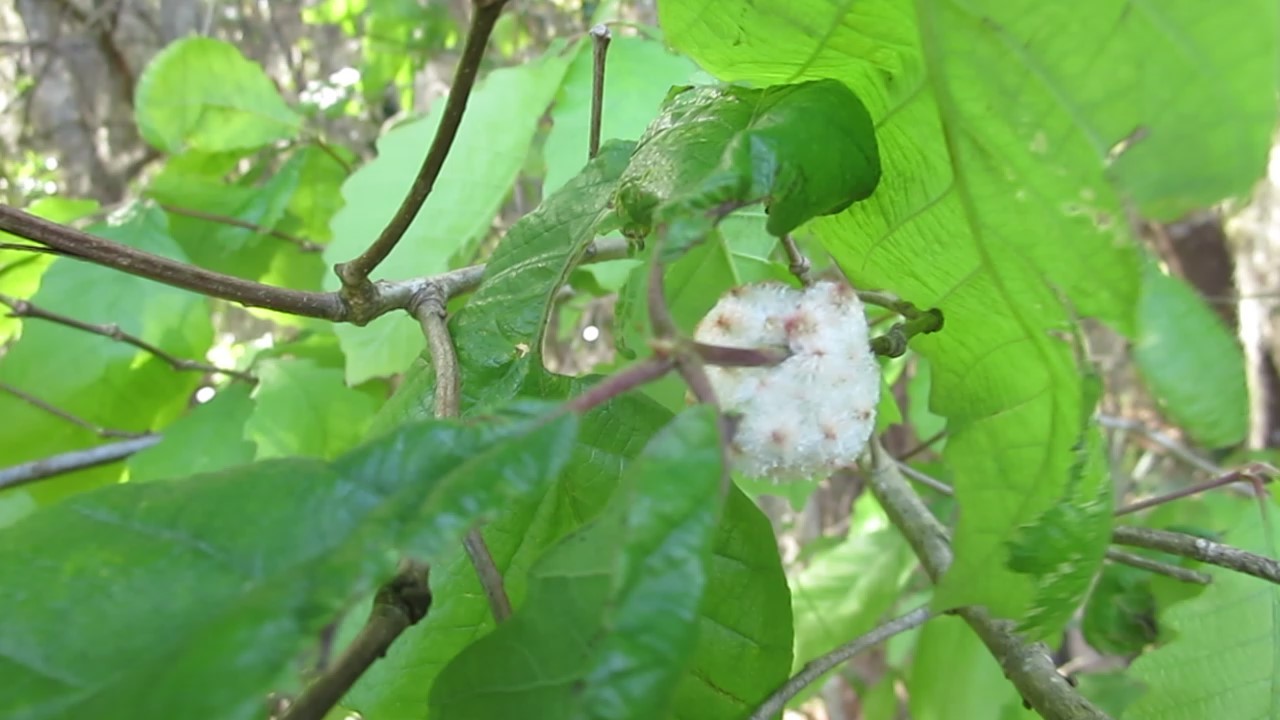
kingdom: Animalia
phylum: Arthropoda
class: Insecta
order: Hymenoptera
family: Cynipidae
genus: Callirhytis
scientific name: Callirhytis
